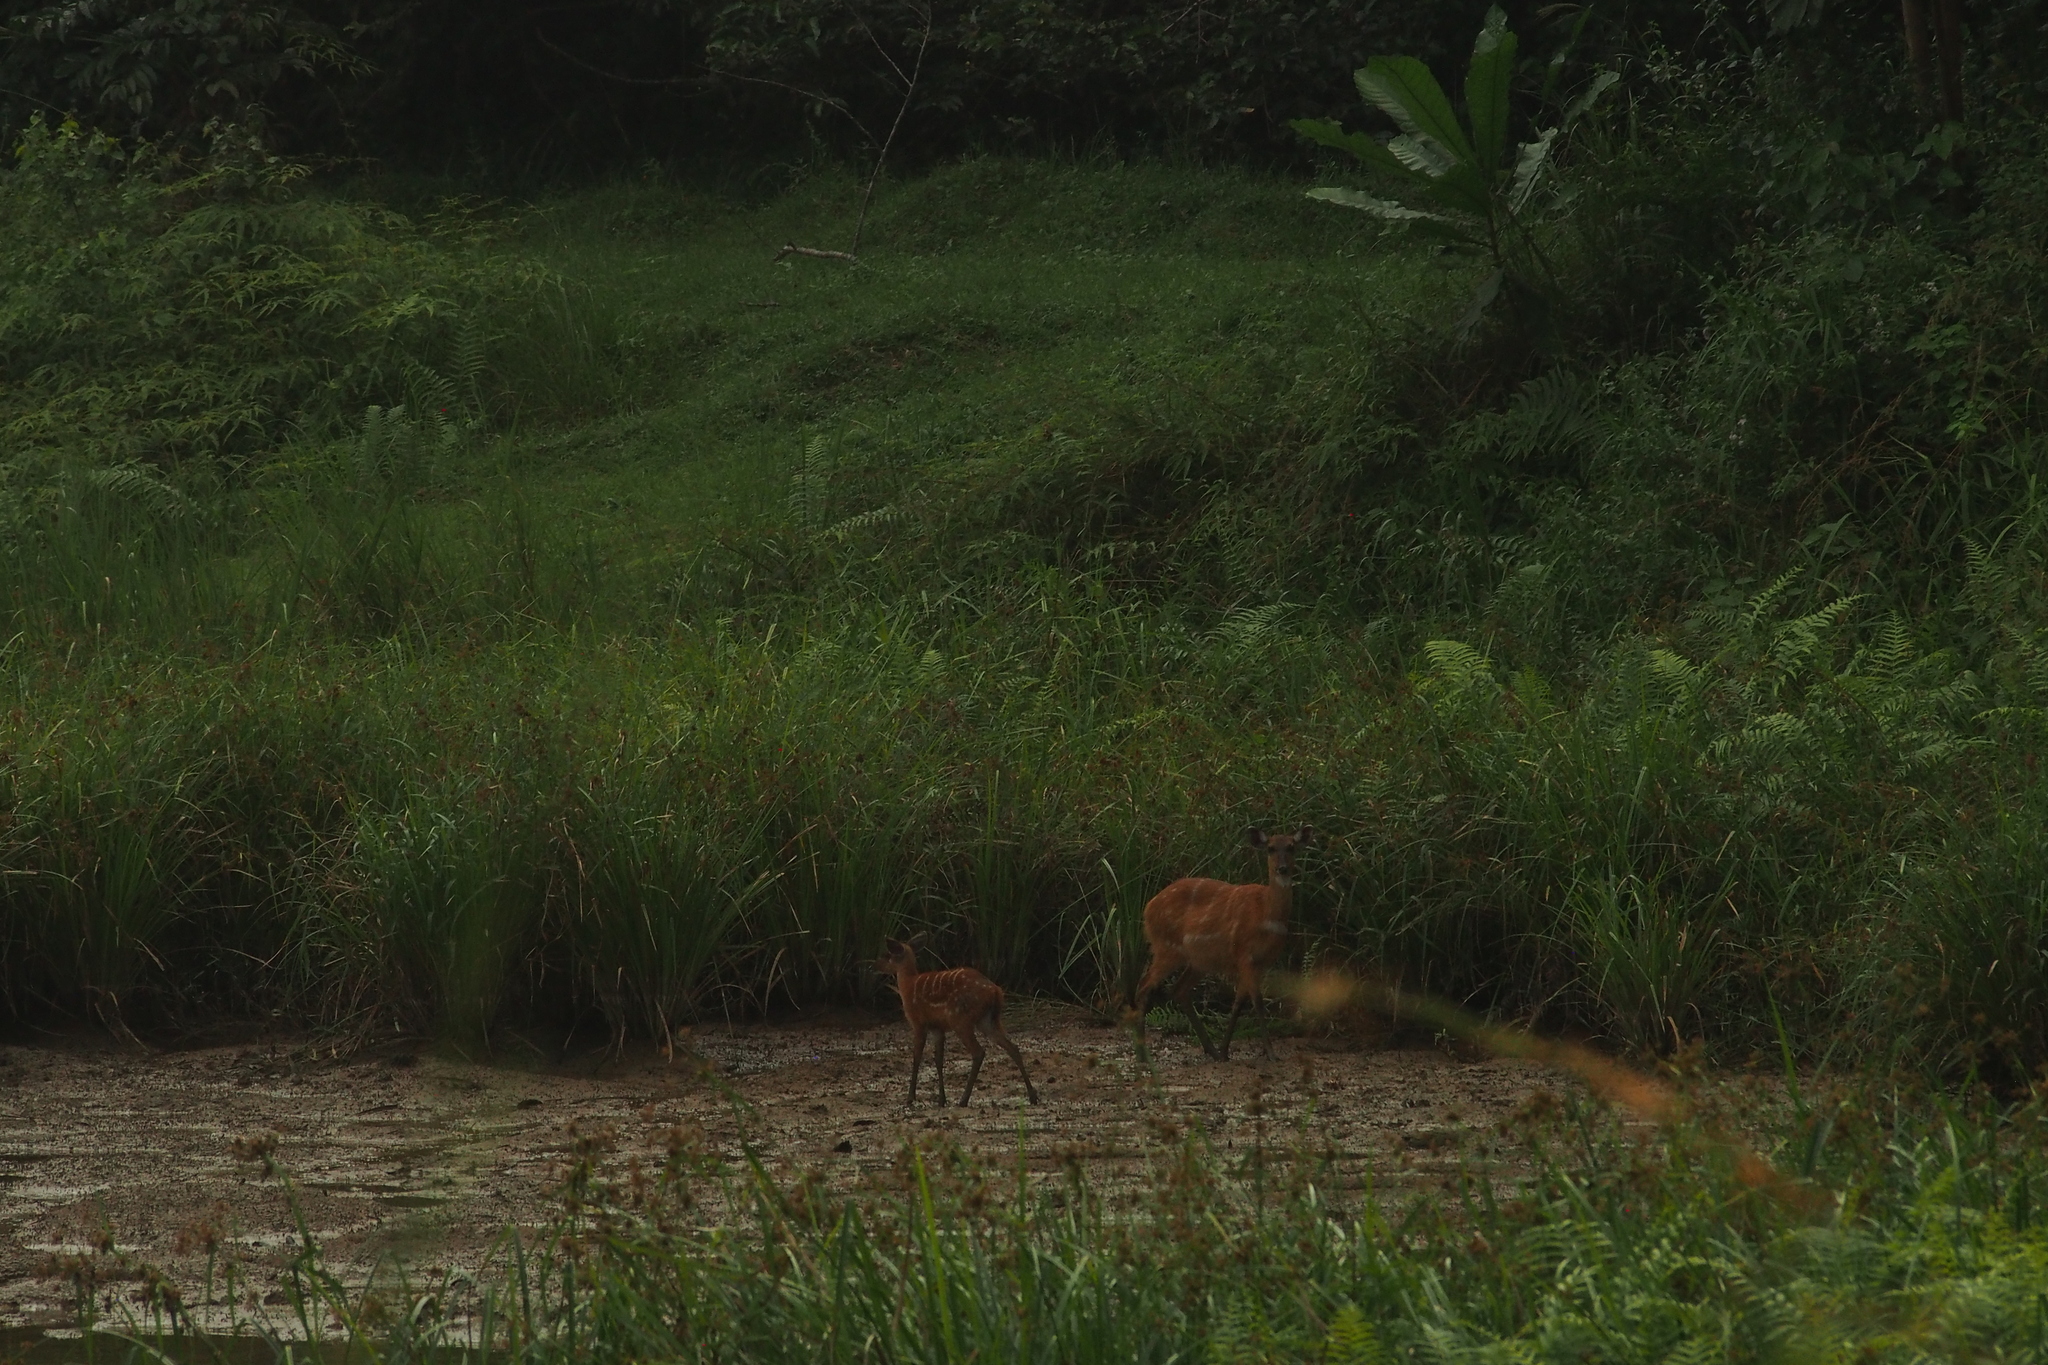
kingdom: Animalia
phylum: Chordata
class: Mammalia
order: Artiodactyla
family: Bovidae
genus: Tragelaphus
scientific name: Tragelaphus spekii
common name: Sitatunga
